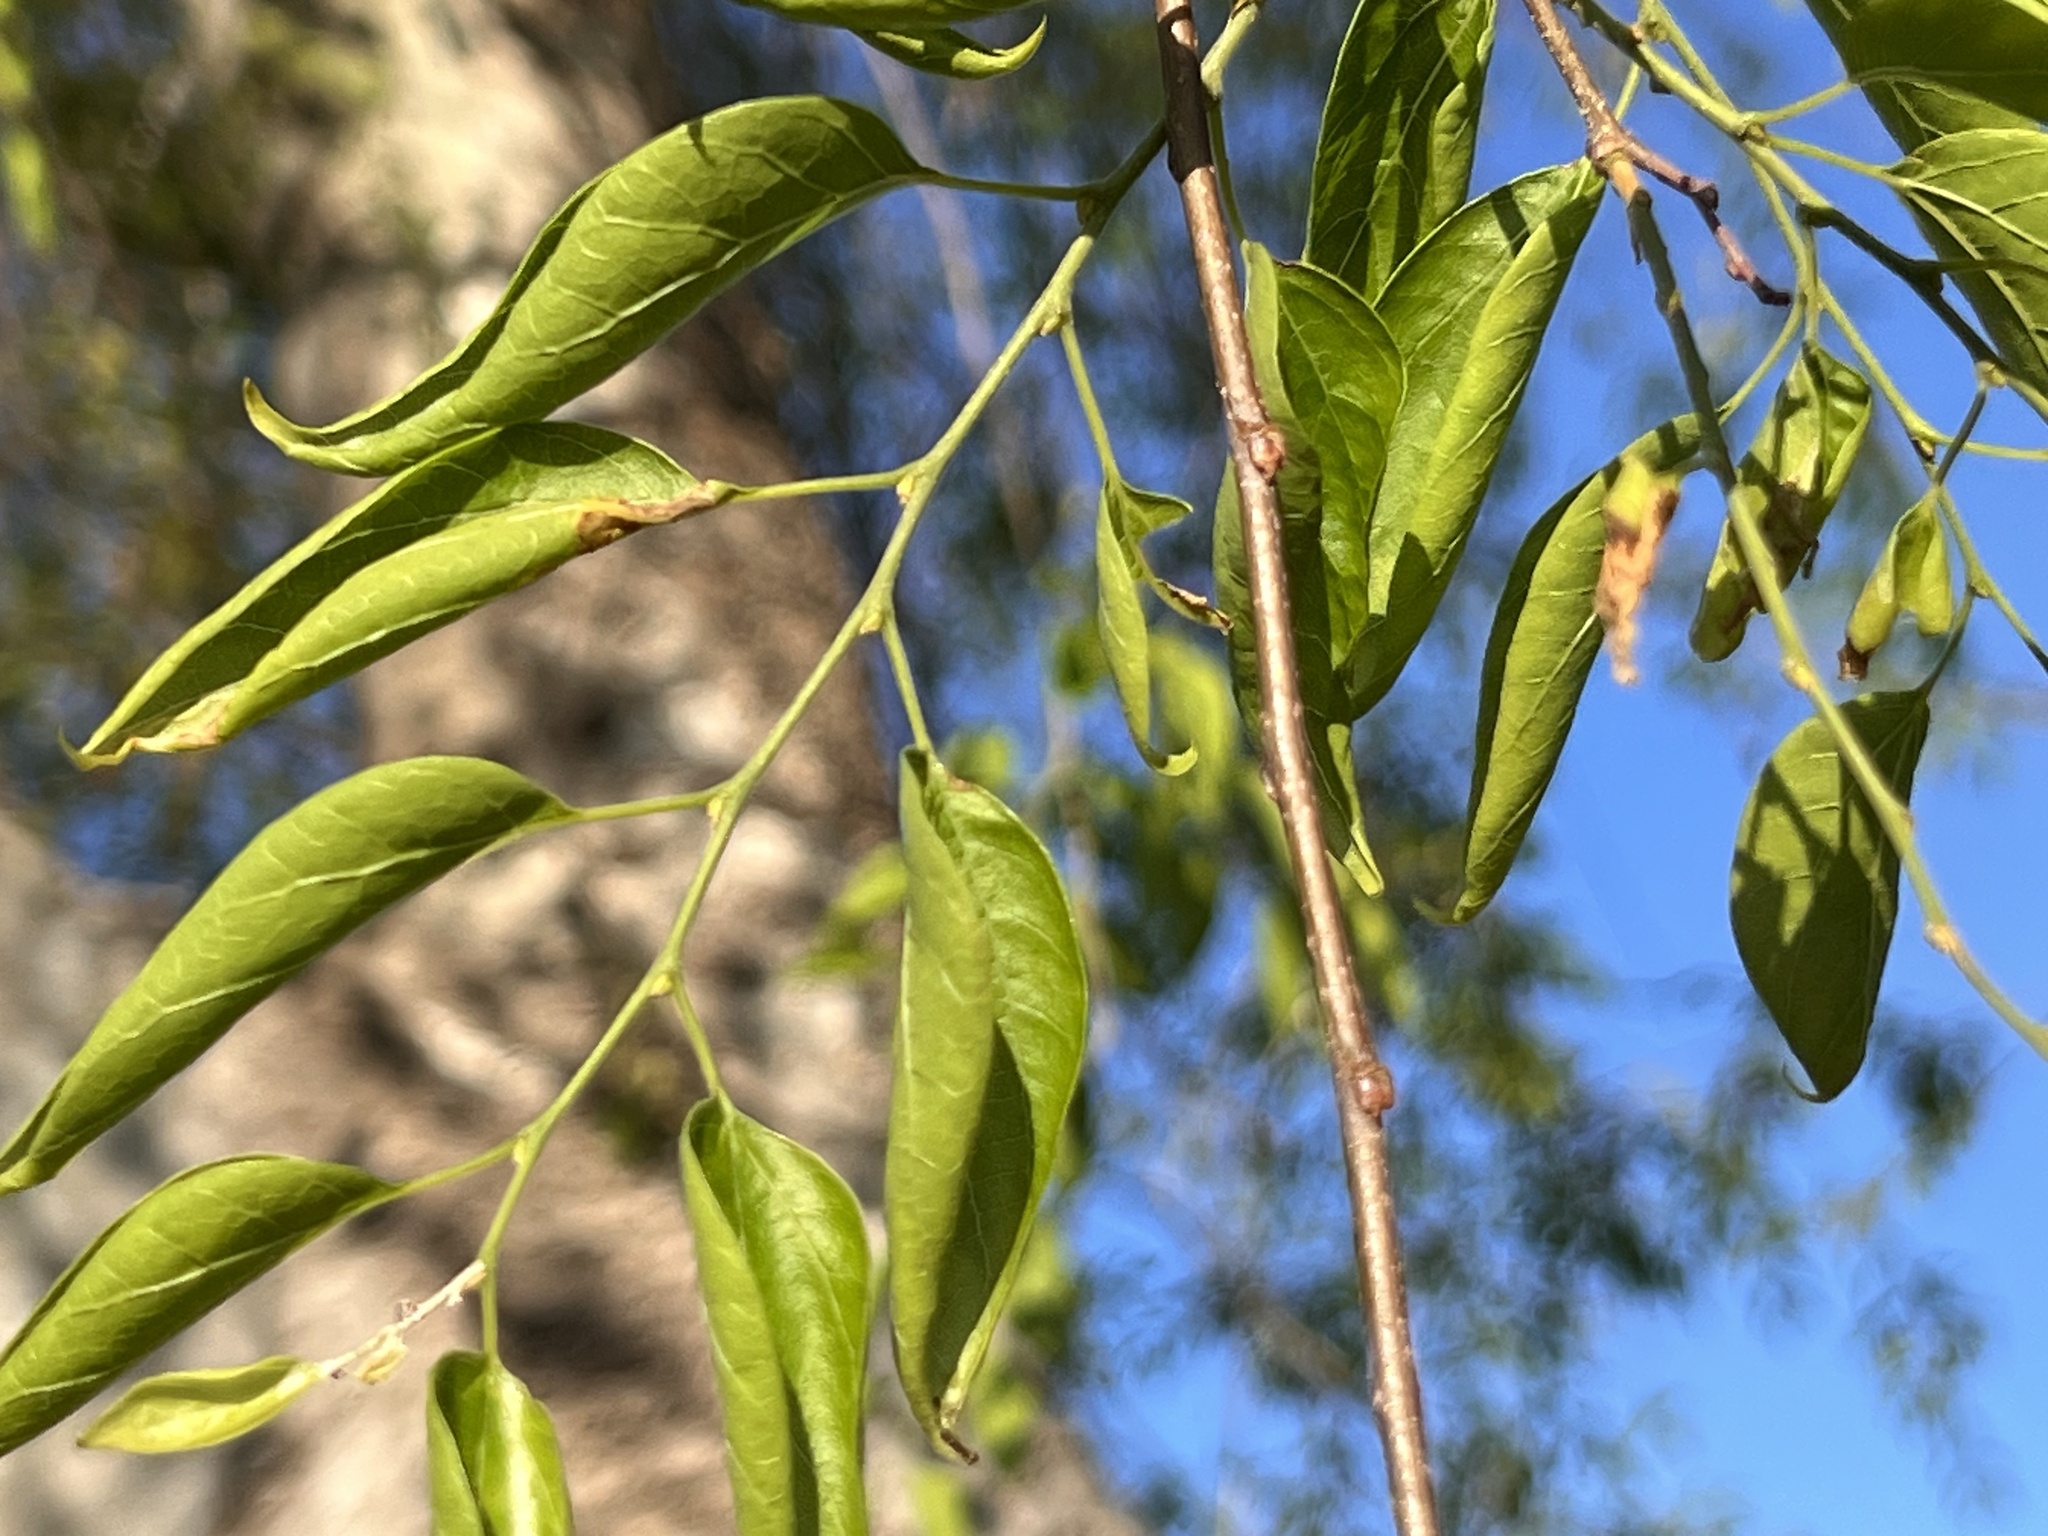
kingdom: Plantae
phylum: Tracheophyta
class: Magnoliopsida
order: Rosales
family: Cannabaceae
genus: Celtis
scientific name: Celtis laevigata
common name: Sugarberry
